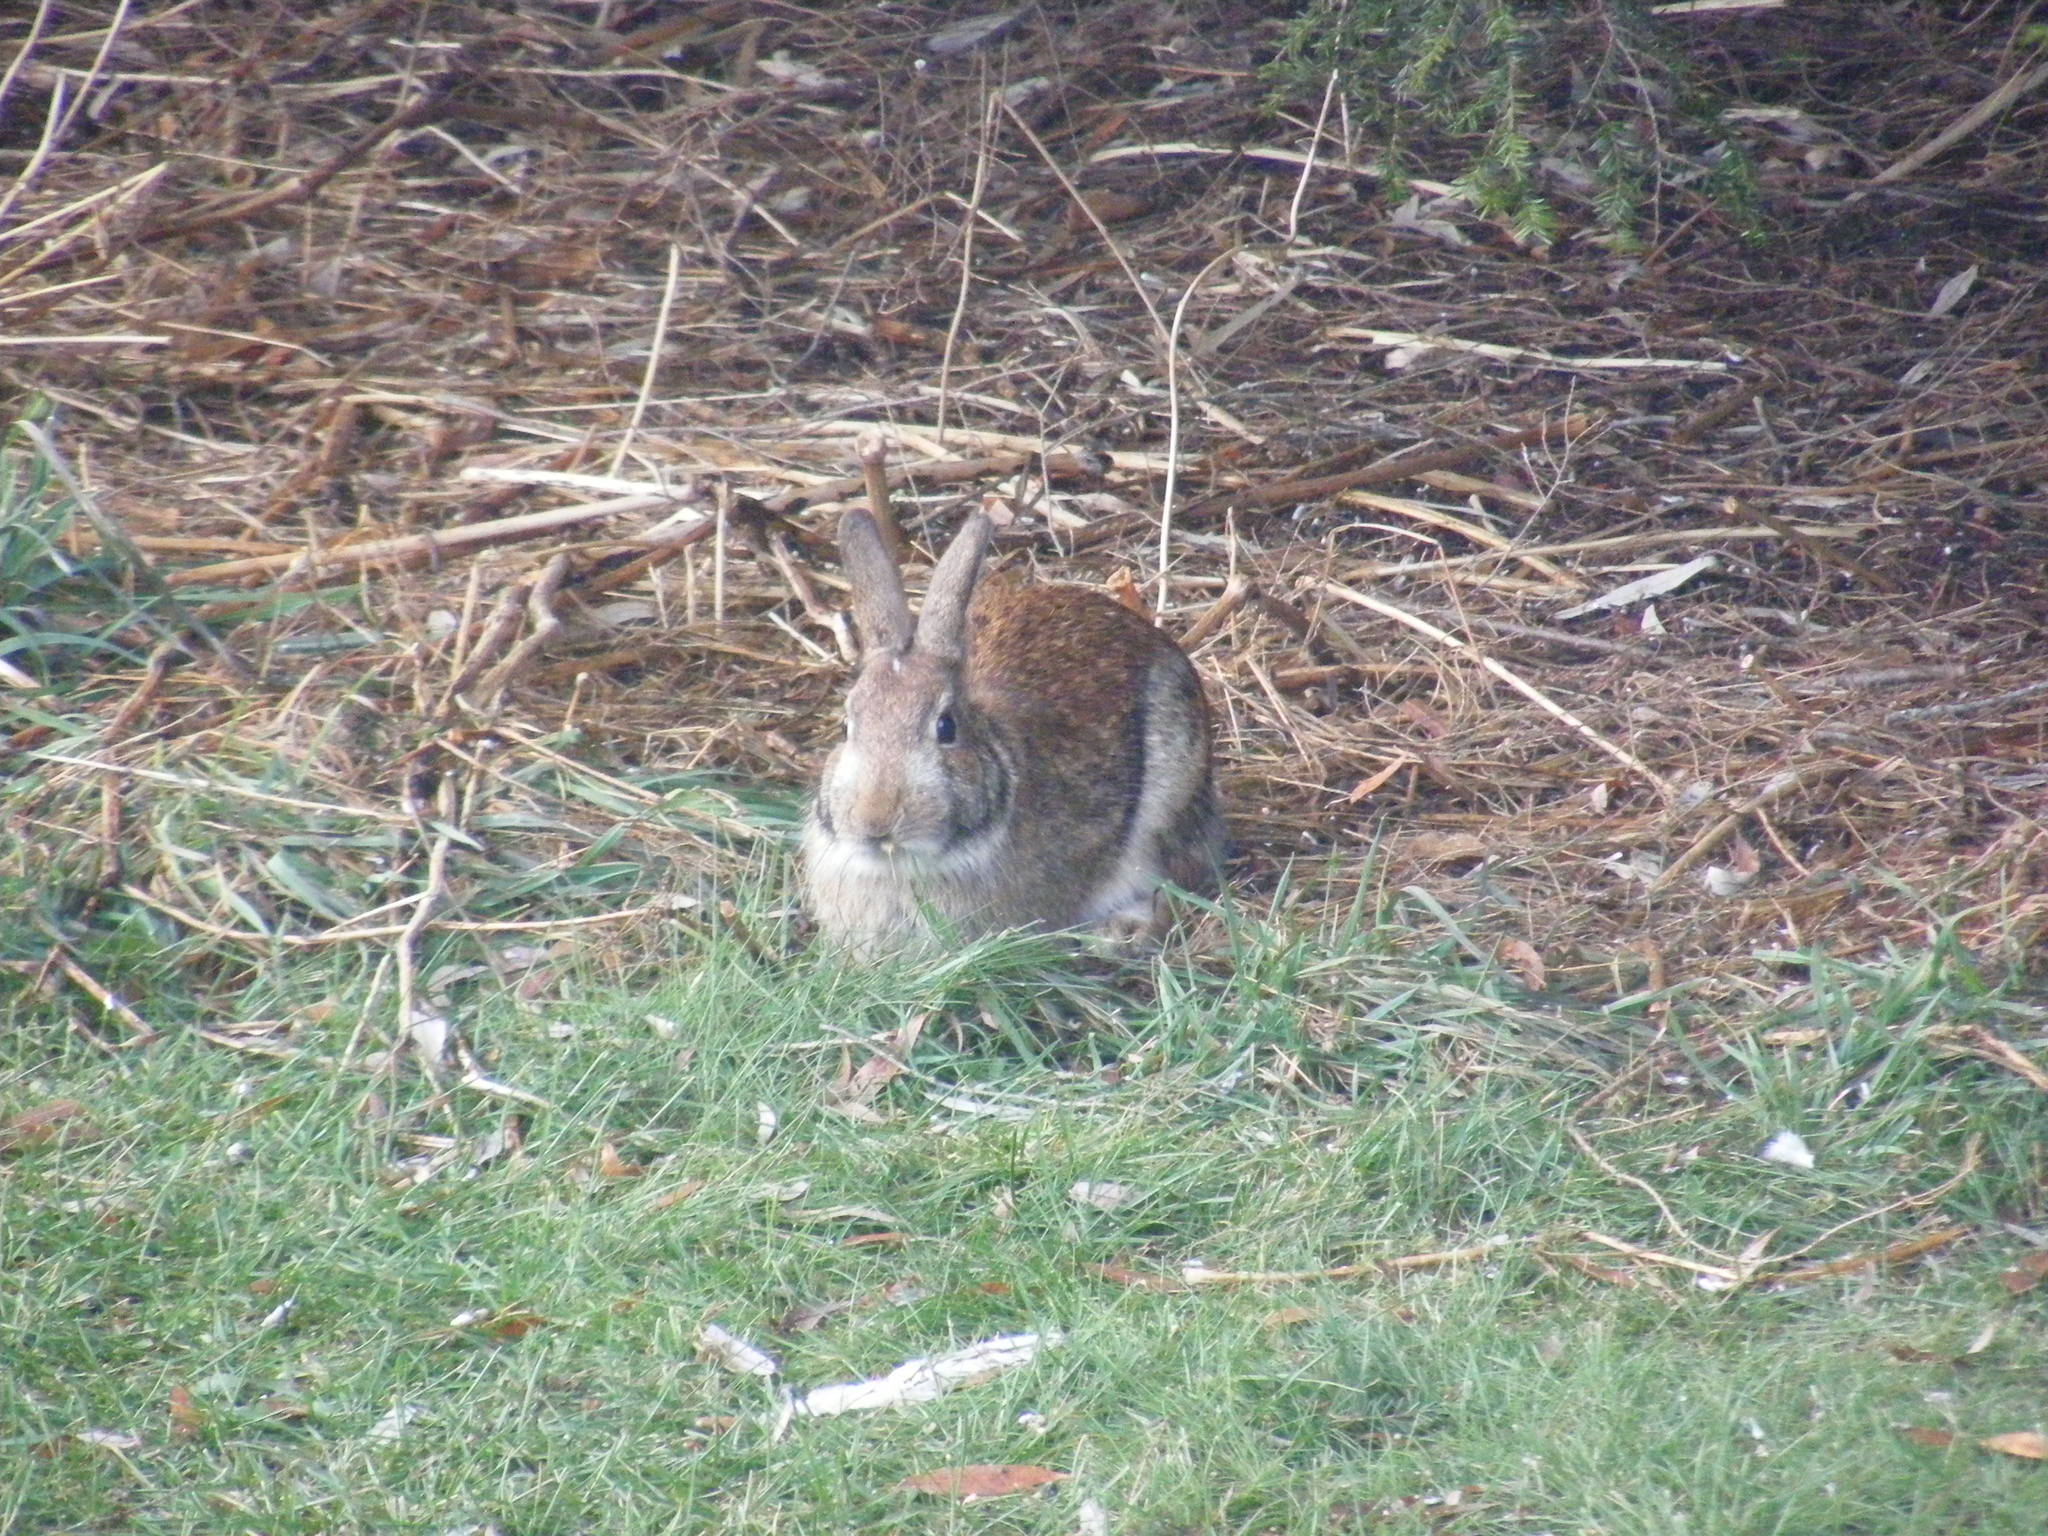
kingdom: Animalia
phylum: Chordata
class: Mammalia
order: Lagomorpha
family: Leporidae
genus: Sylvilagus
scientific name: Sylvilagus floridanus
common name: Eastern cottontail
